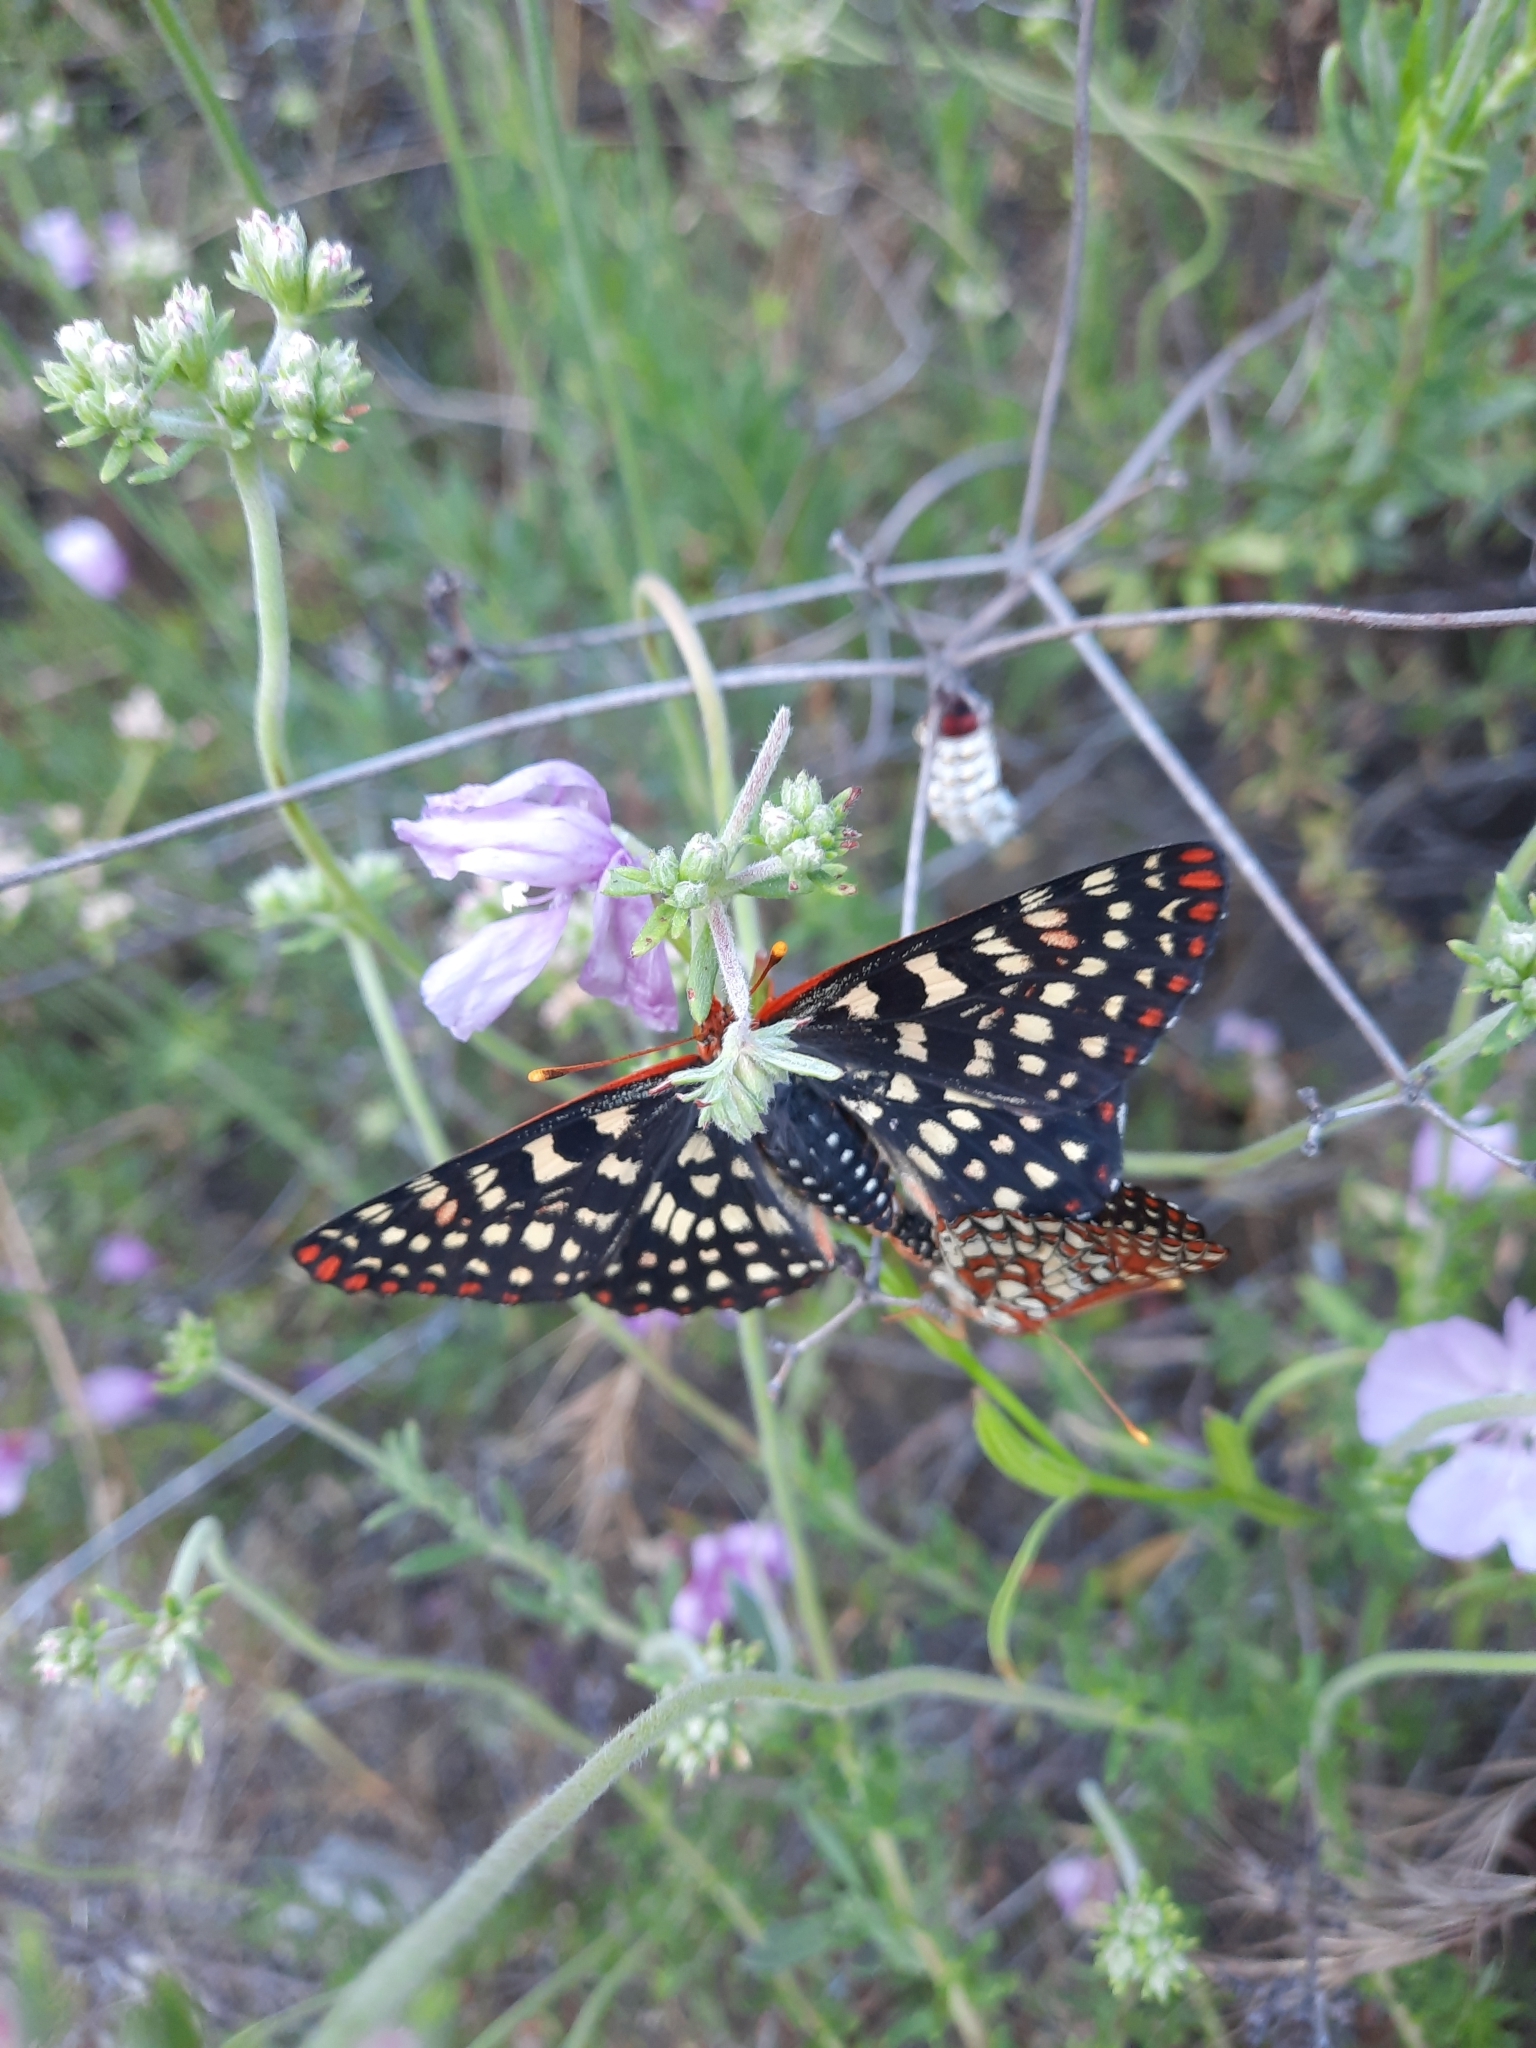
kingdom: Animalia
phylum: Arthropoda
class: Insecta
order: Lepidoptera
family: Nymphalidae
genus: Occidryas
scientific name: Occidryas chalcedona
